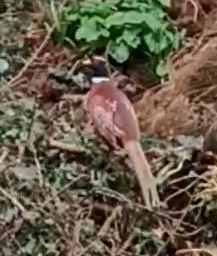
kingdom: Animalia
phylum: Chordata
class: Aves
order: Galliformes
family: Phasianidae
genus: Phasianus
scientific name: Phasianus colchicus
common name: Common pheasant
